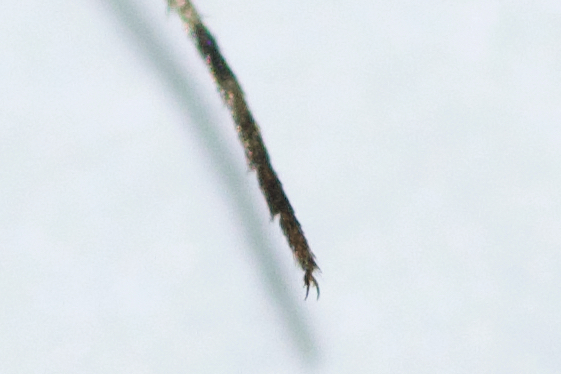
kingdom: Animalia
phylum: Arthropoda
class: Insecta
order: Diptera
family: Culicidae
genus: Aedes
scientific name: Aedes dorsalis
